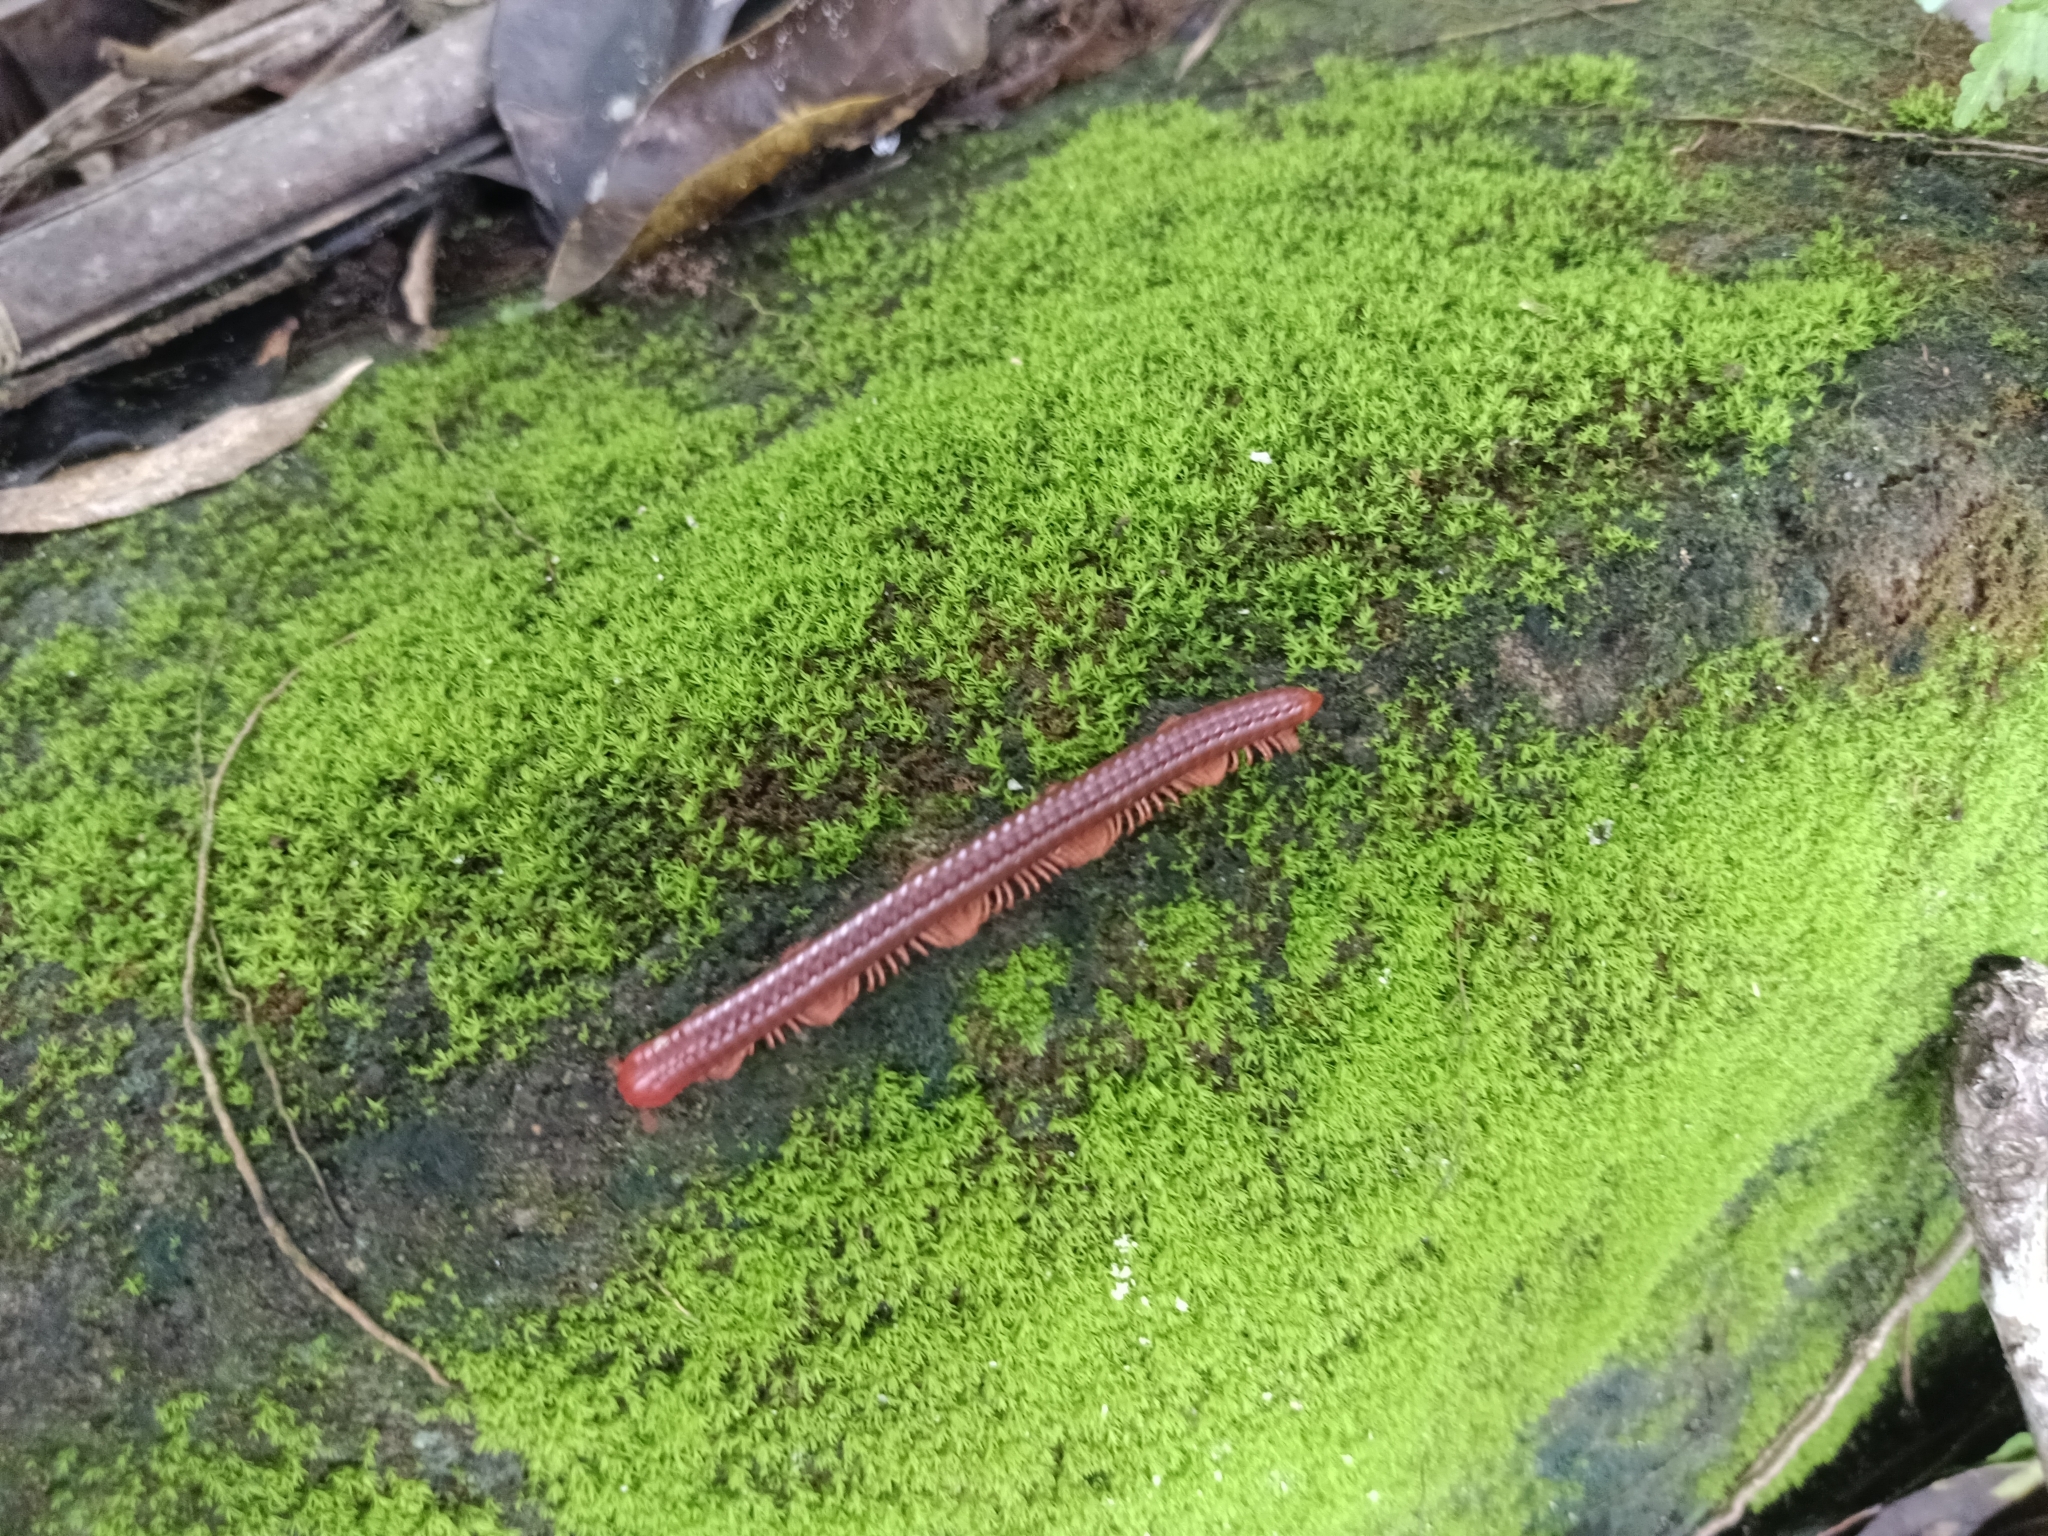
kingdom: Animalia
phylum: Arthropoda
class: Diplopoda
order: Spirobolida
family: Pachybolidae
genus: Trigoniulus
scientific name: Trigoniulus corallinus
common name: Millipede
